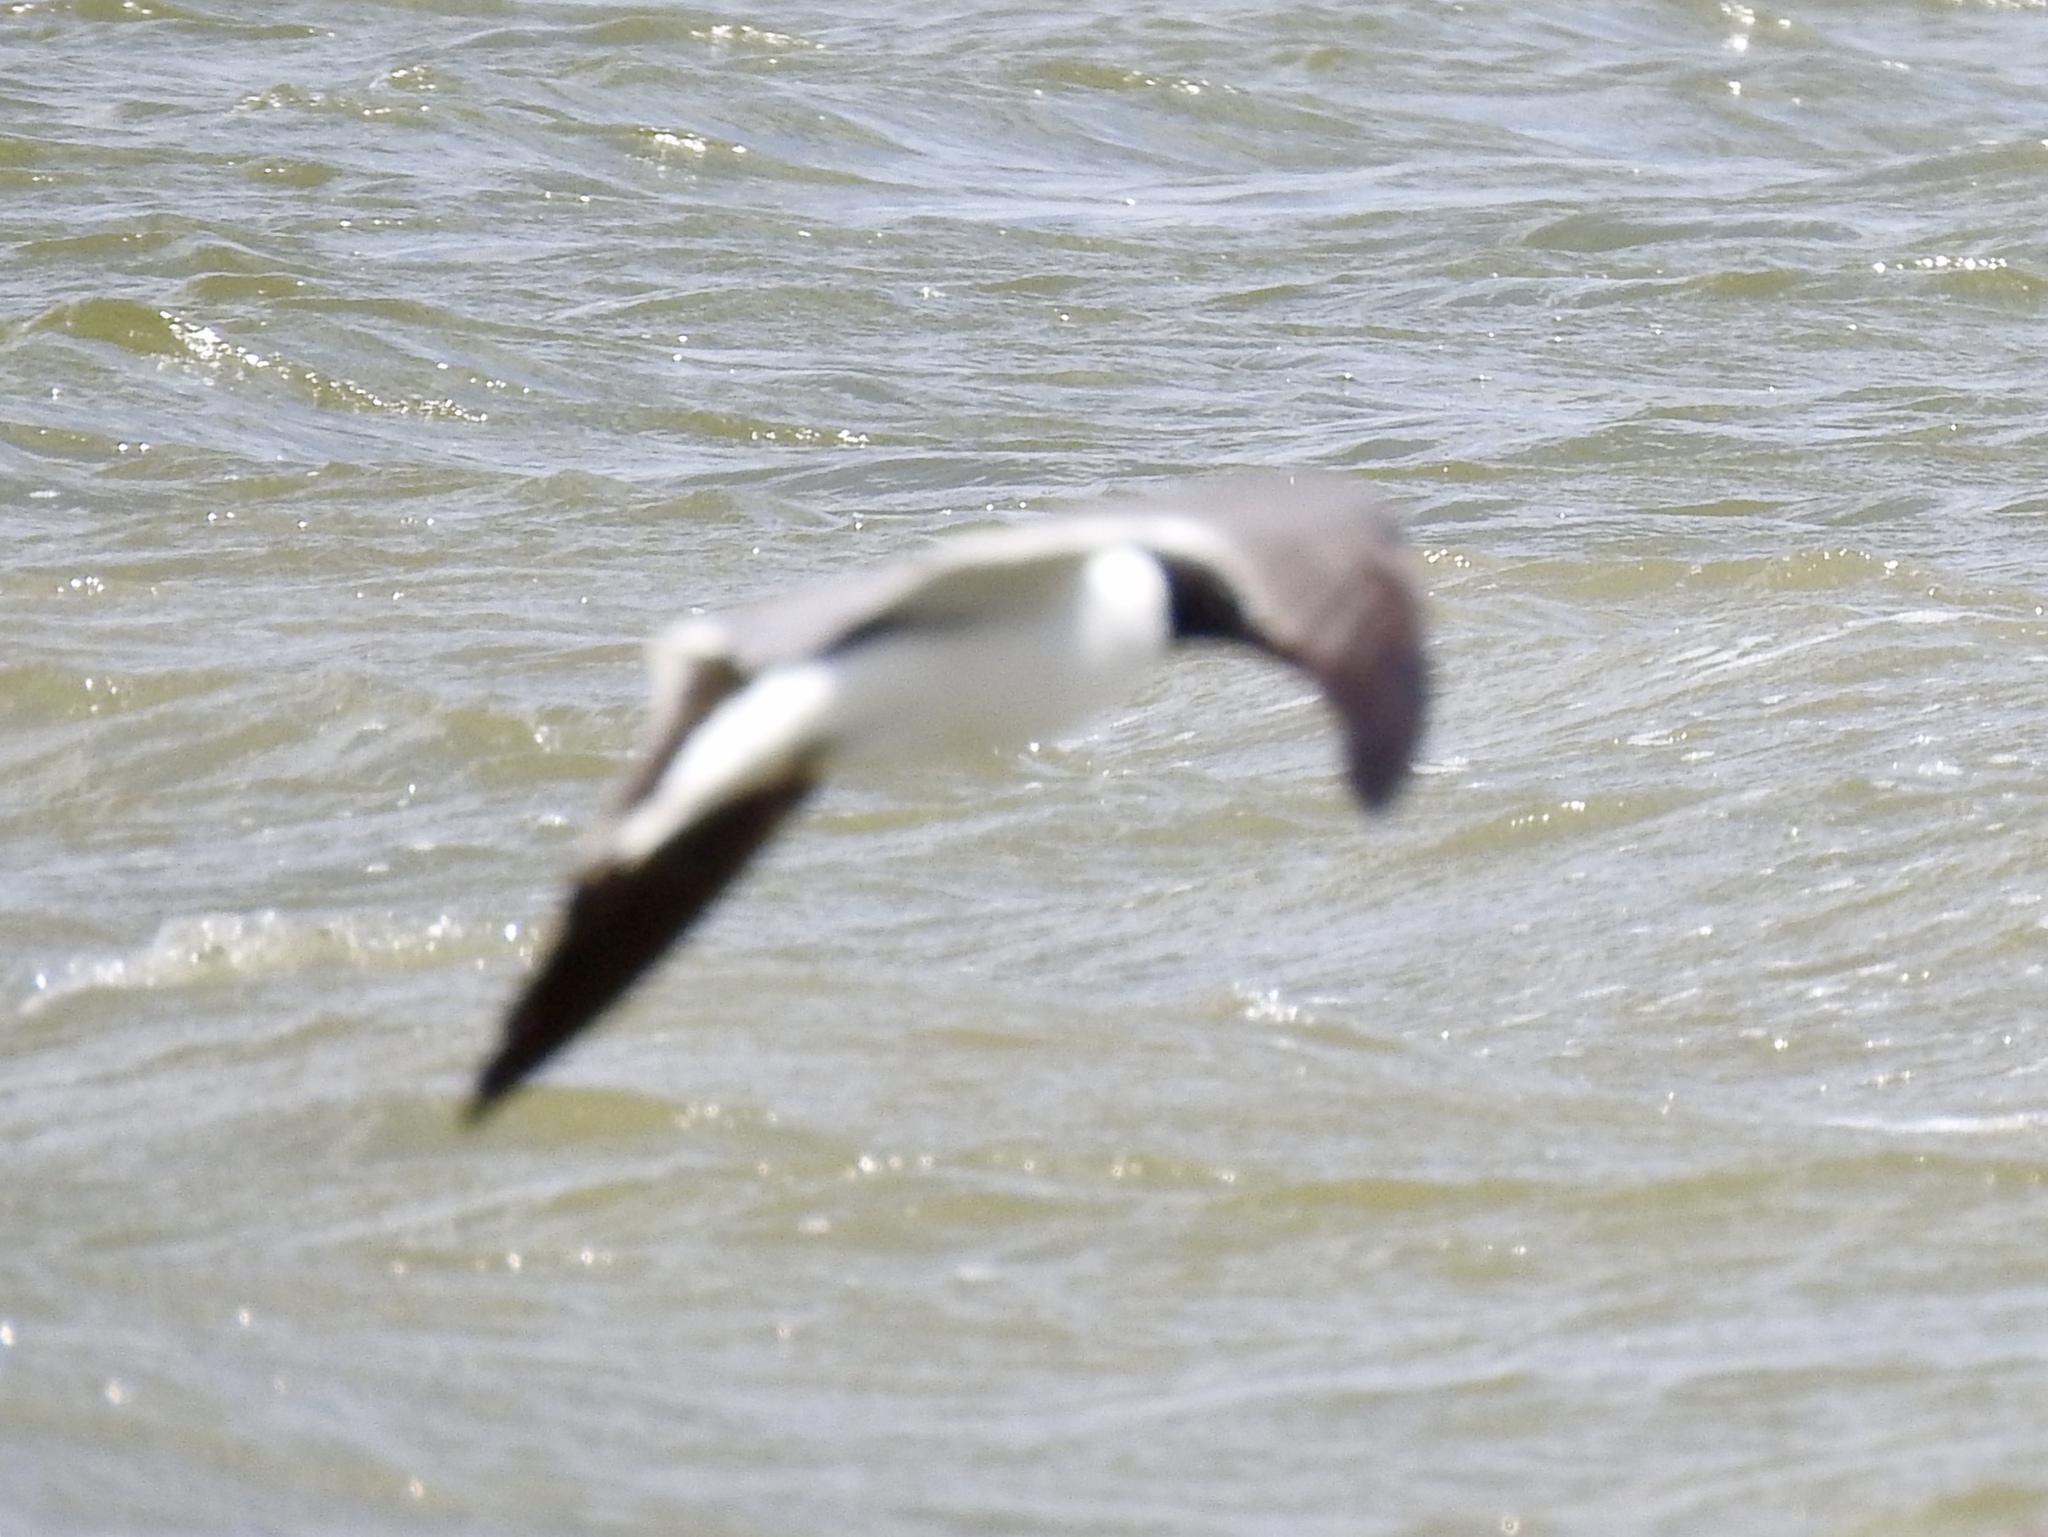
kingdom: Animalia
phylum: Chordata
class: Aves
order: Charadriiformes
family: Laridae
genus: Leucophaeus
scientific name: Leucophaeus atricilla
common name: Laughing gull
